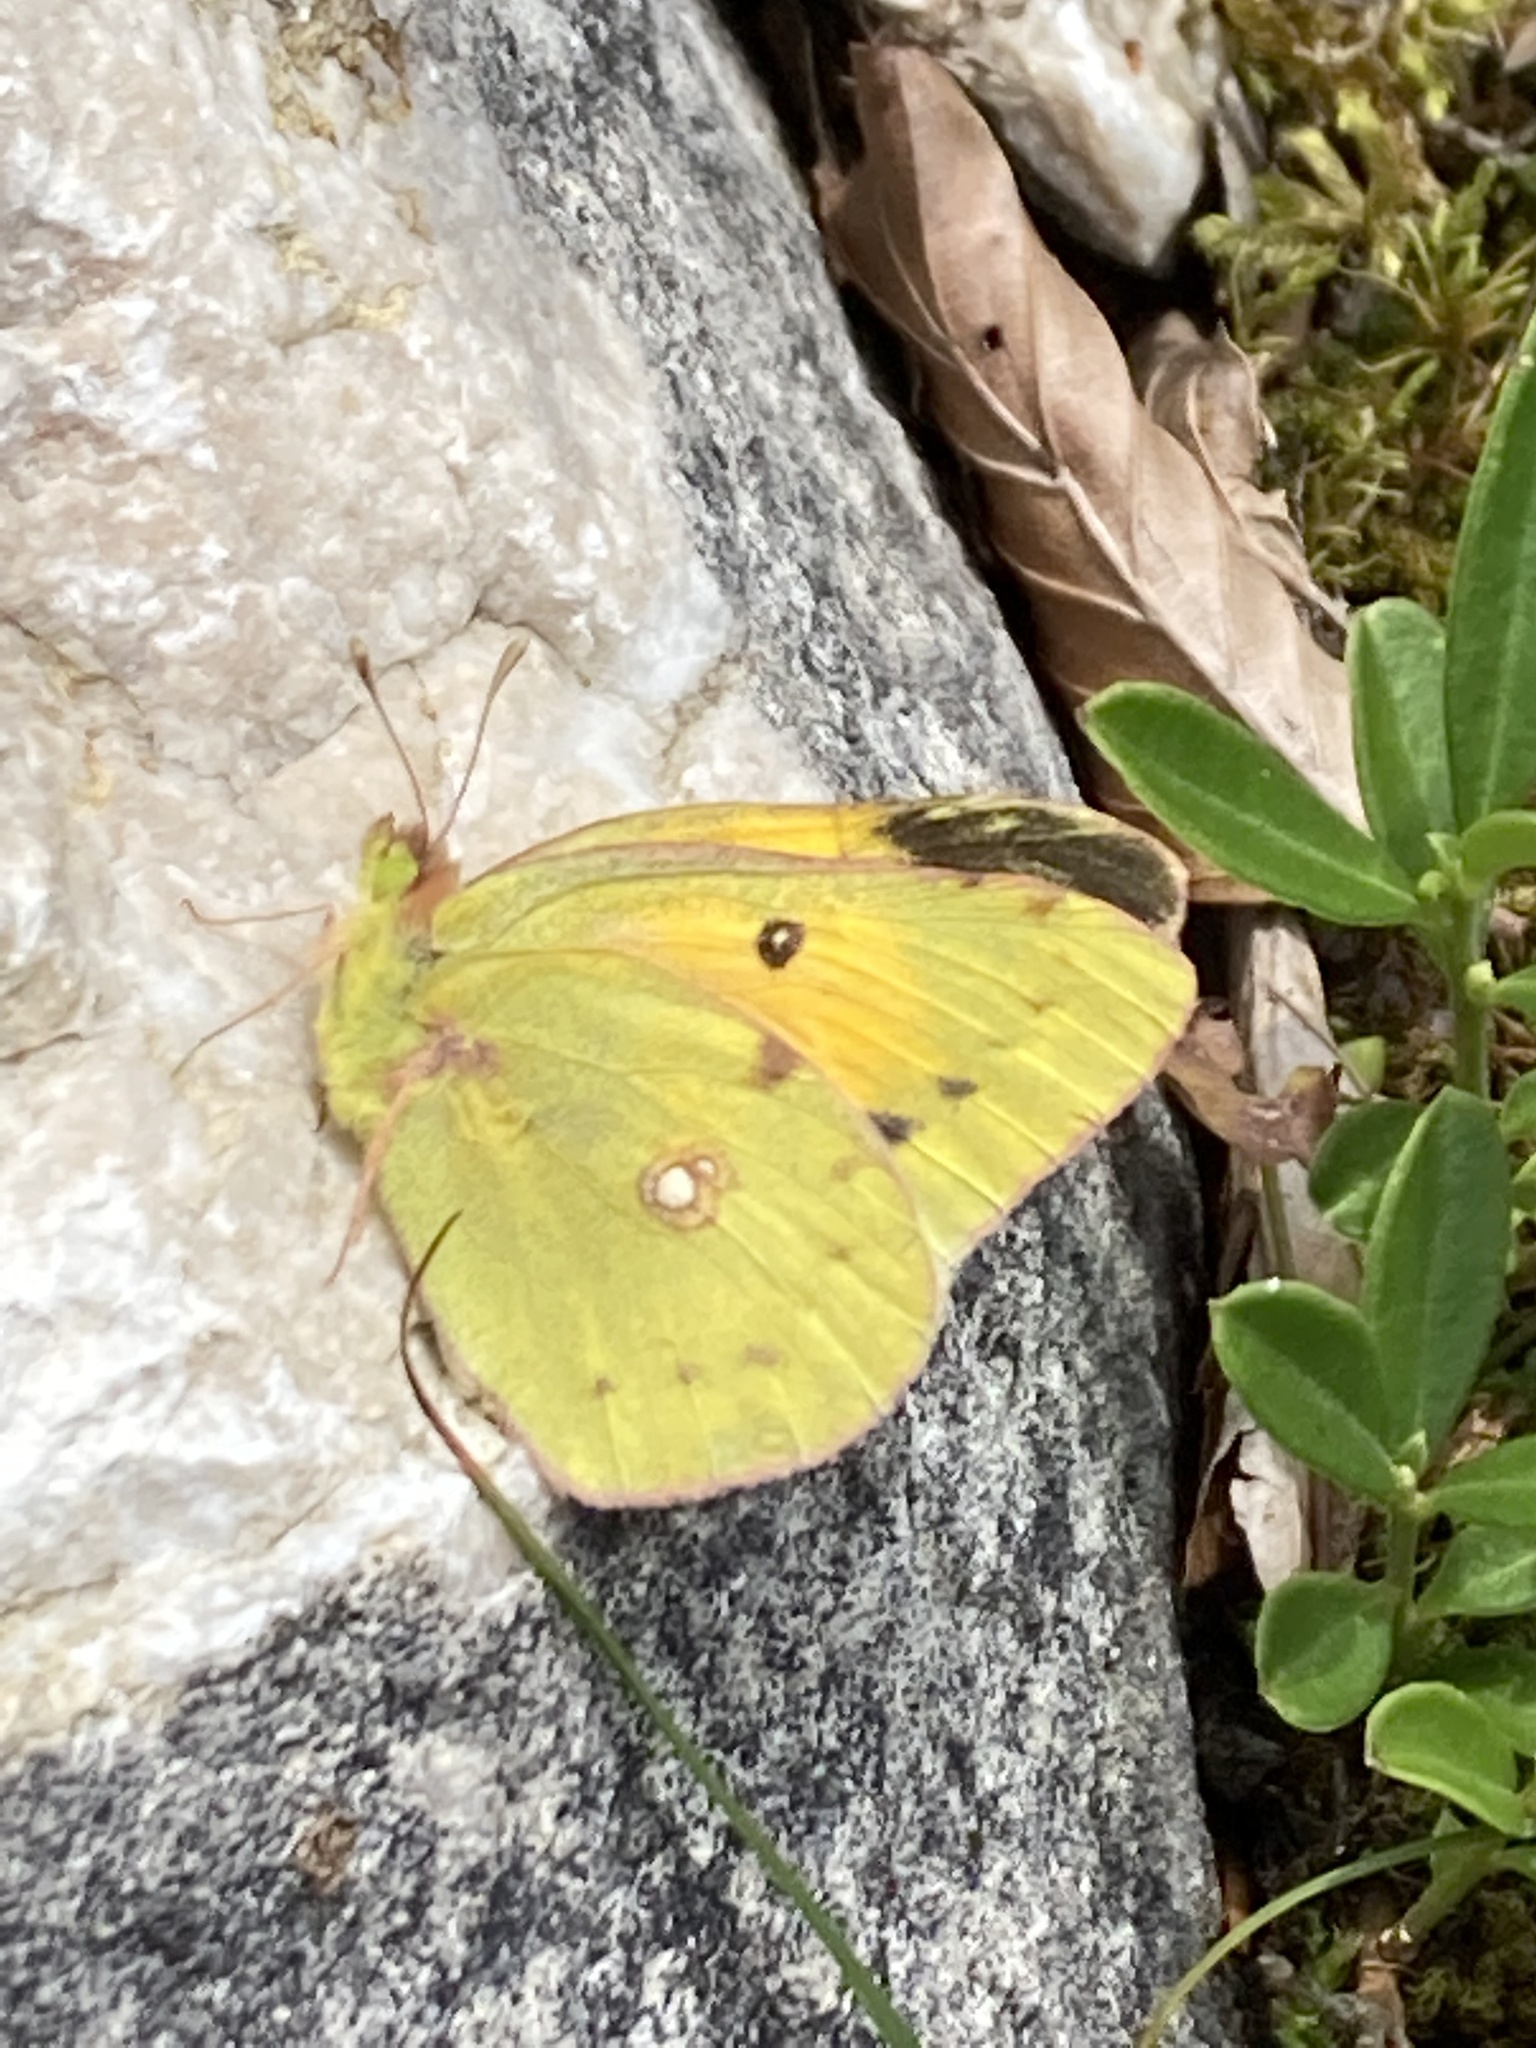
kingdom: Animalia
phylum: Arthropoda
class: Insecta
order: Lepidoptera
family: Pieridae
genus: Colias
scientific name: Colias croceus
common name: Clouded yellow
